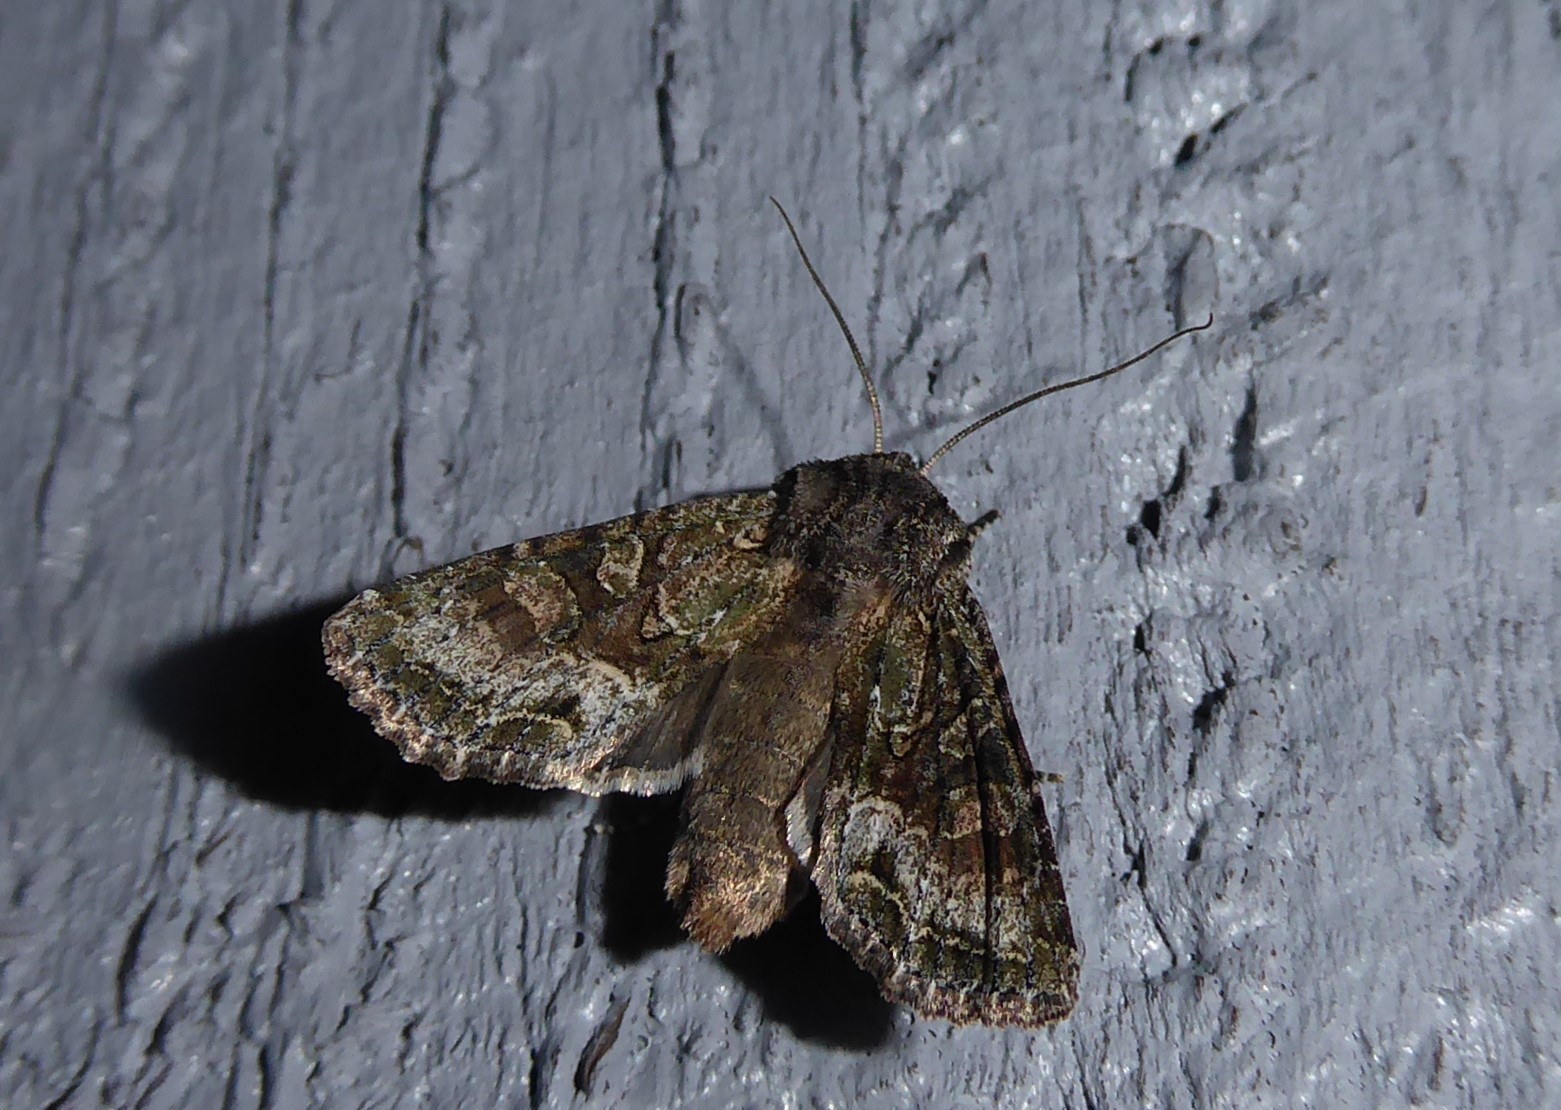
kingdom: Animalia
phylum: Arthropoda
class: Insecta
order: Lepidoptera
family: Noctuidae
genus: Ichneutica
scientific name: Ichneutica mutans
